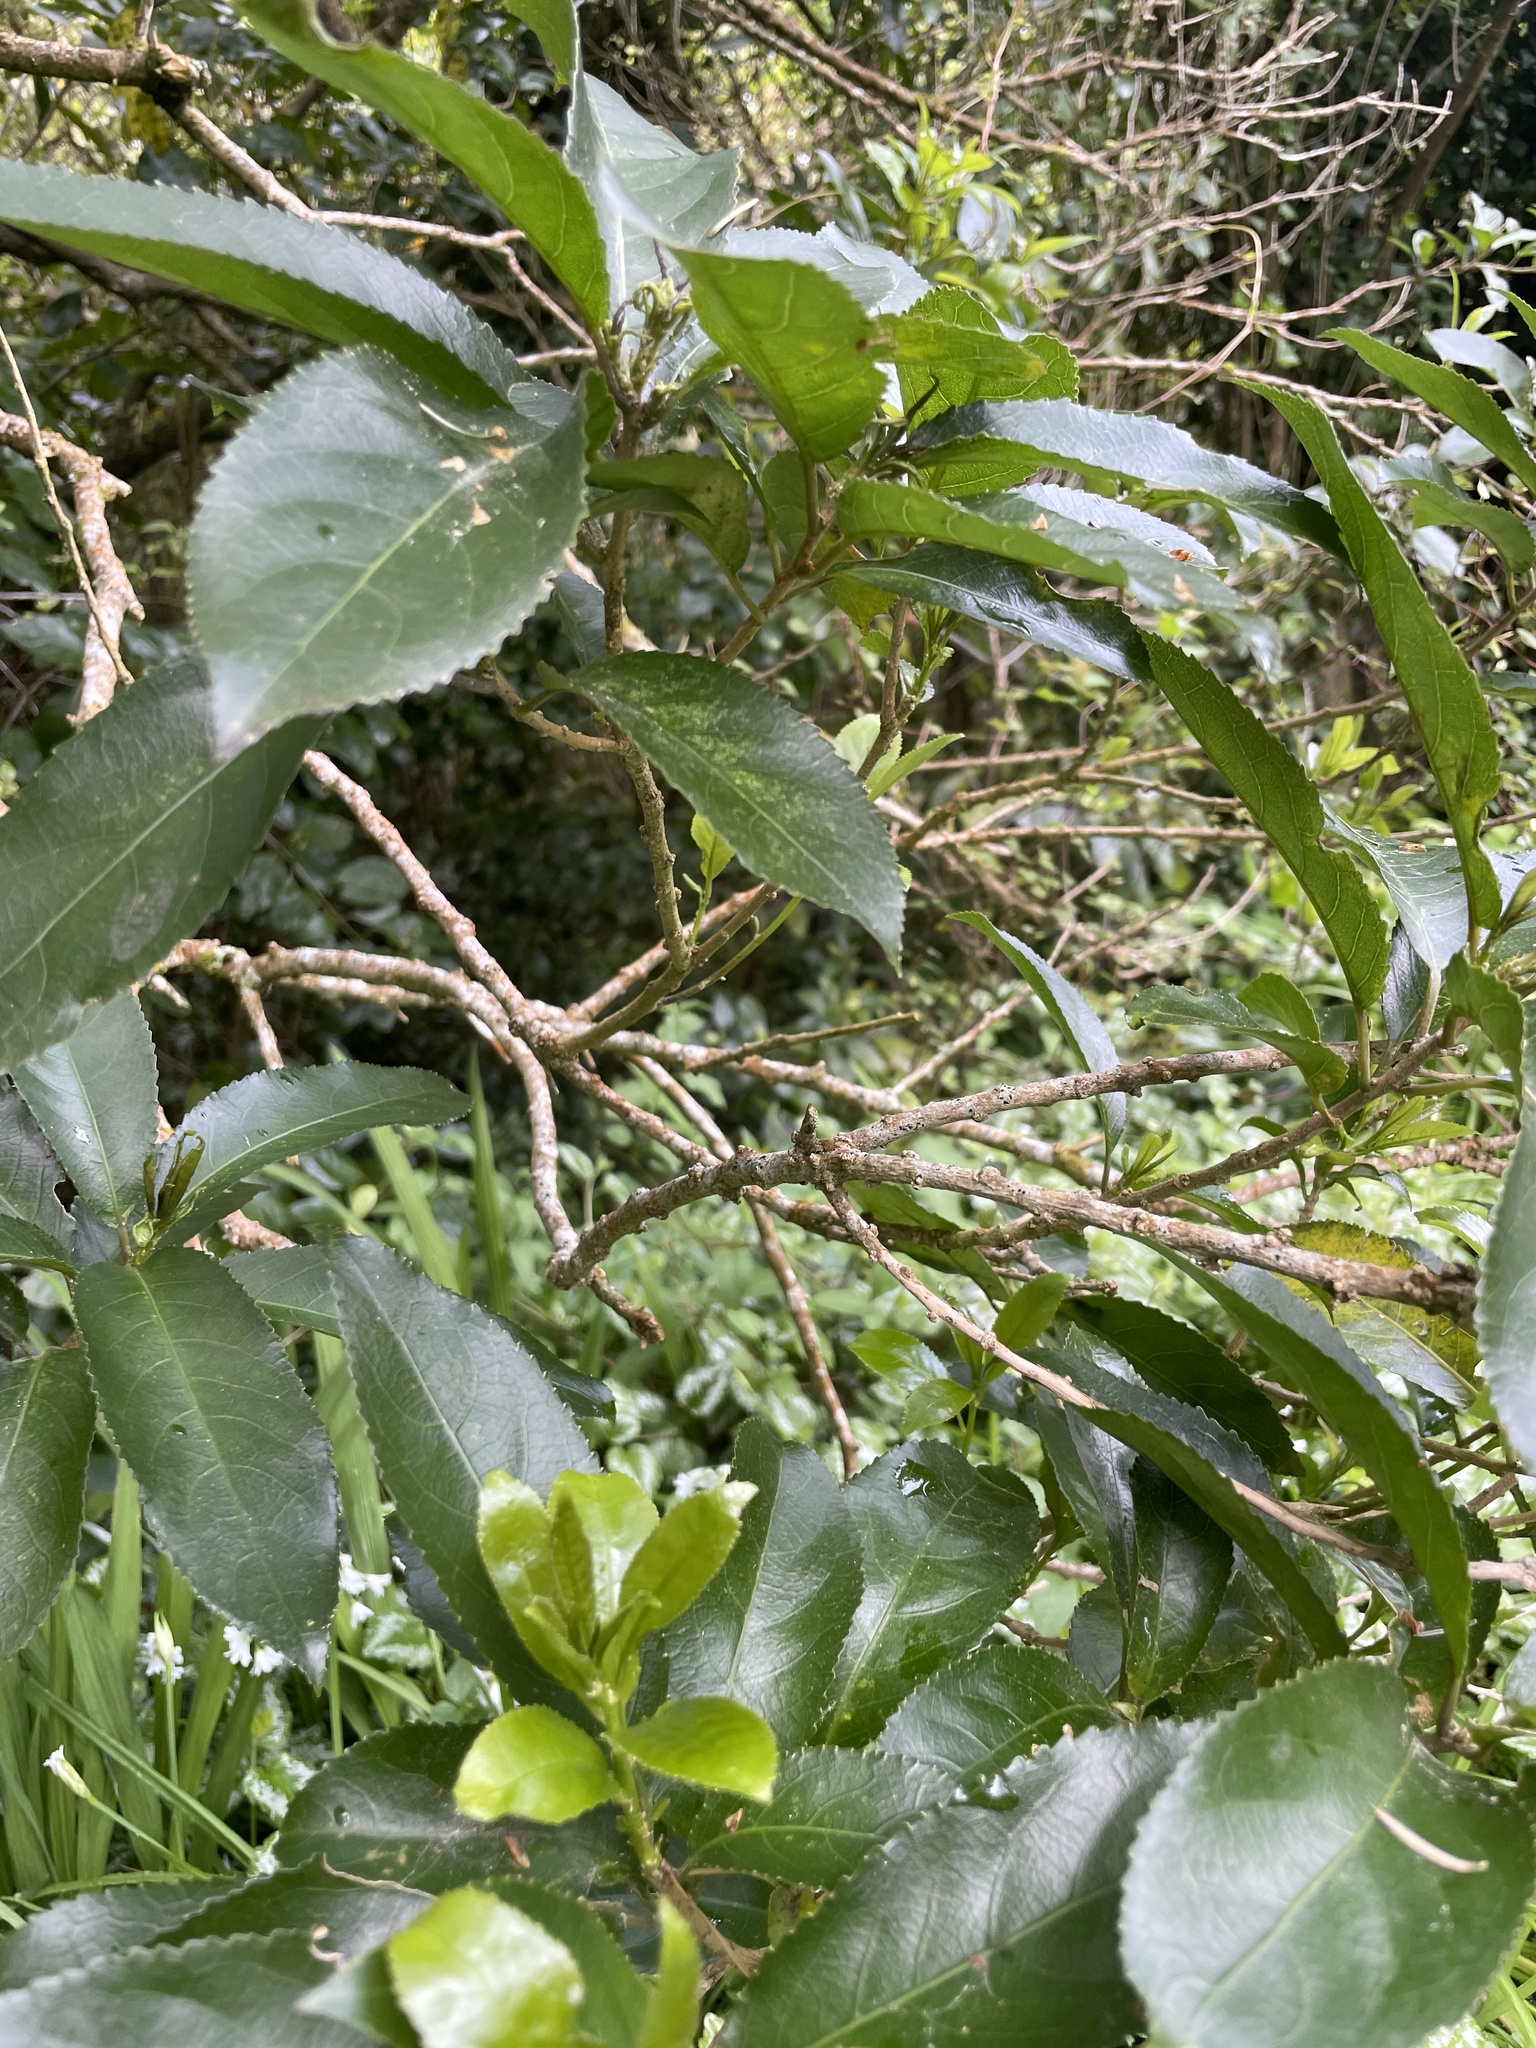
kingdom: Plantae
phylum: Tracheophyta
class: Magnoliopsida
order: Malpighiales
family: Violaceae
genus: Melicytus
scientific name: Melicytus ramiflorus
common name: Mahoe
